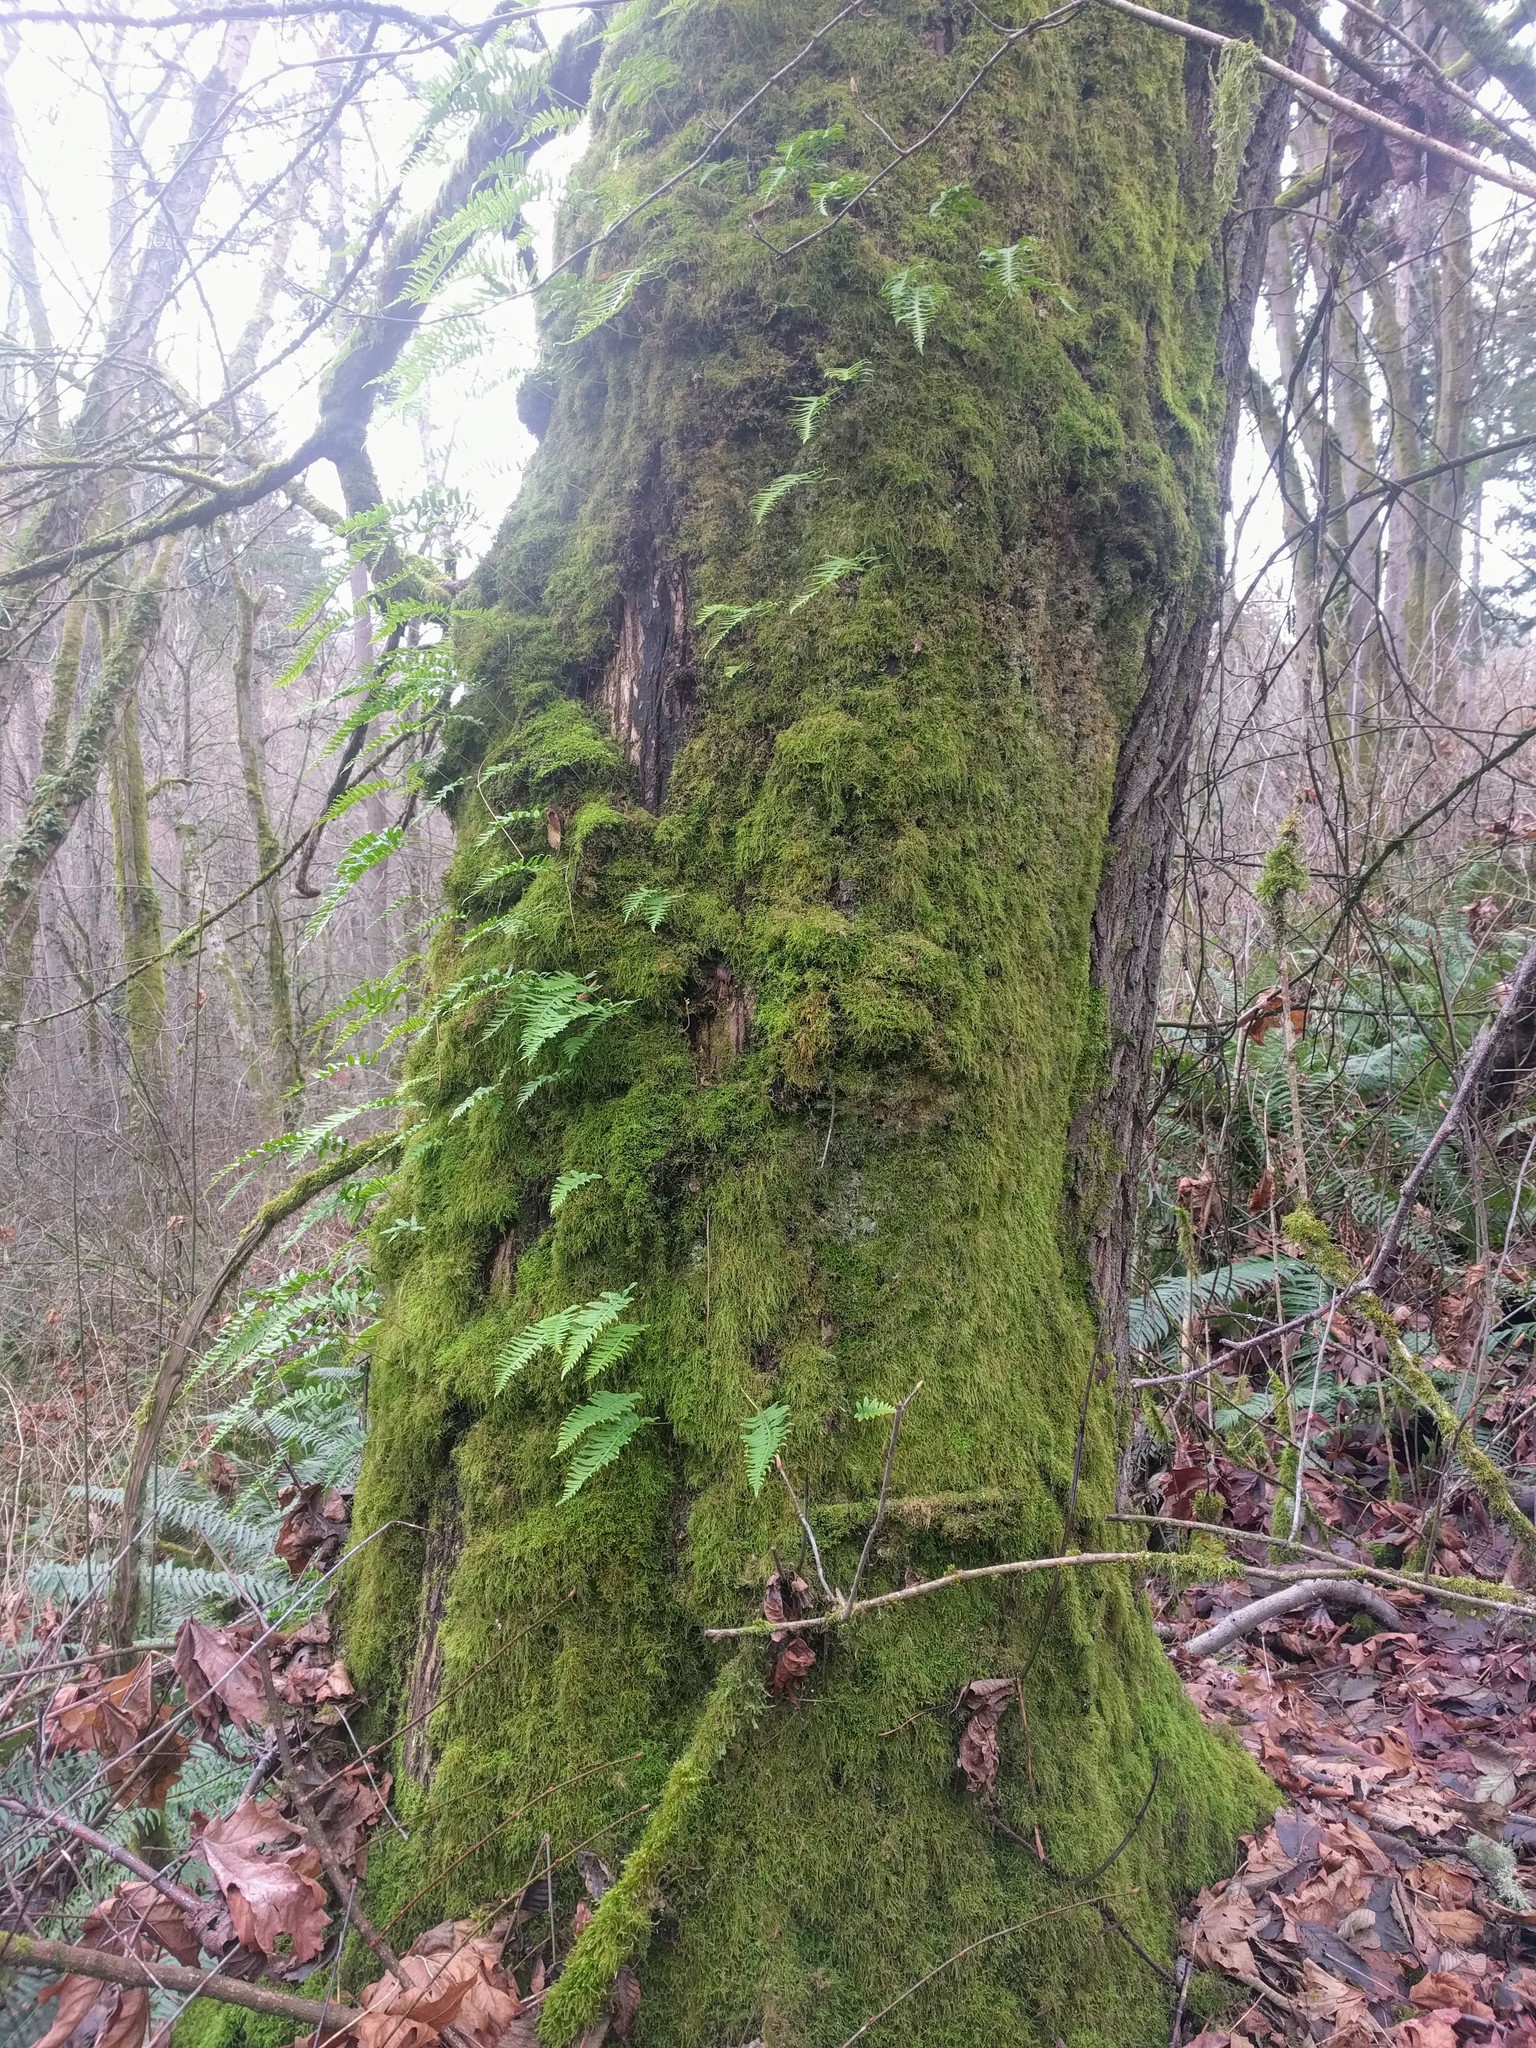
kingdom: Plantae
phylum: Tracheophyta
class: Polypodiopsida
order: Polypodiales
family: Polypodiaceae
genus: Polypodium
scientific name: Polypodium glycyrrhiza
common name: Licorice fern
